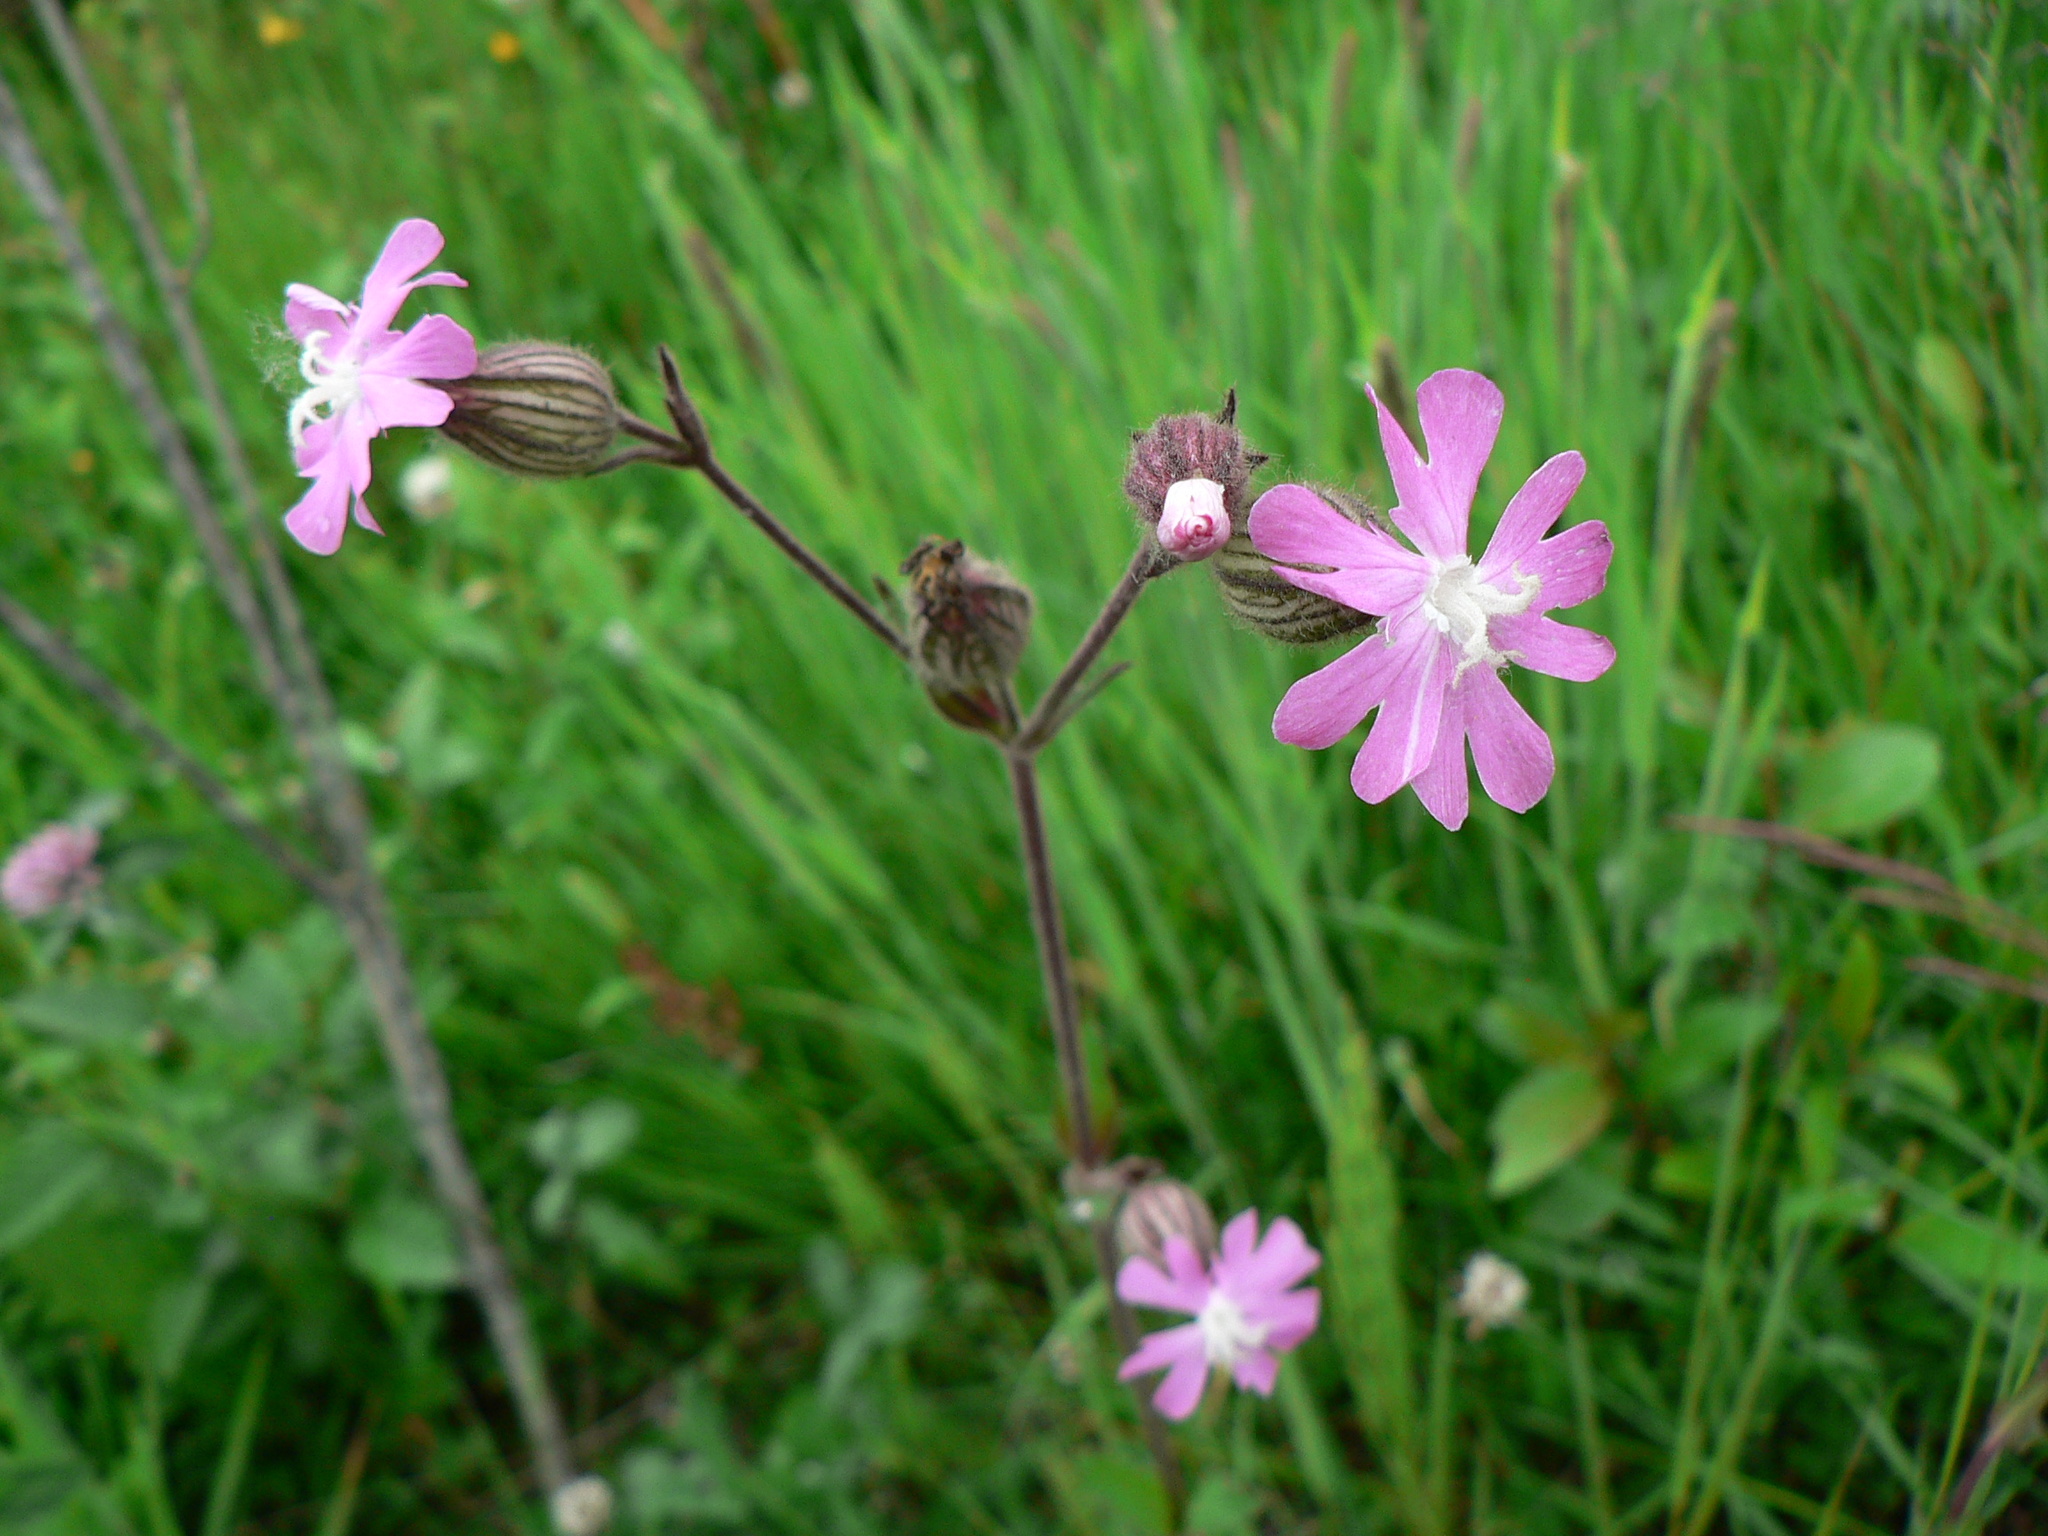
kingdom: Plantae
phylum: Tracheophyta
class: Magnoliopsida
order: Caryophyllales
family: Caryophyllaceae
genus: Silene
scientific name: Silene dioica
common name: Red campion
